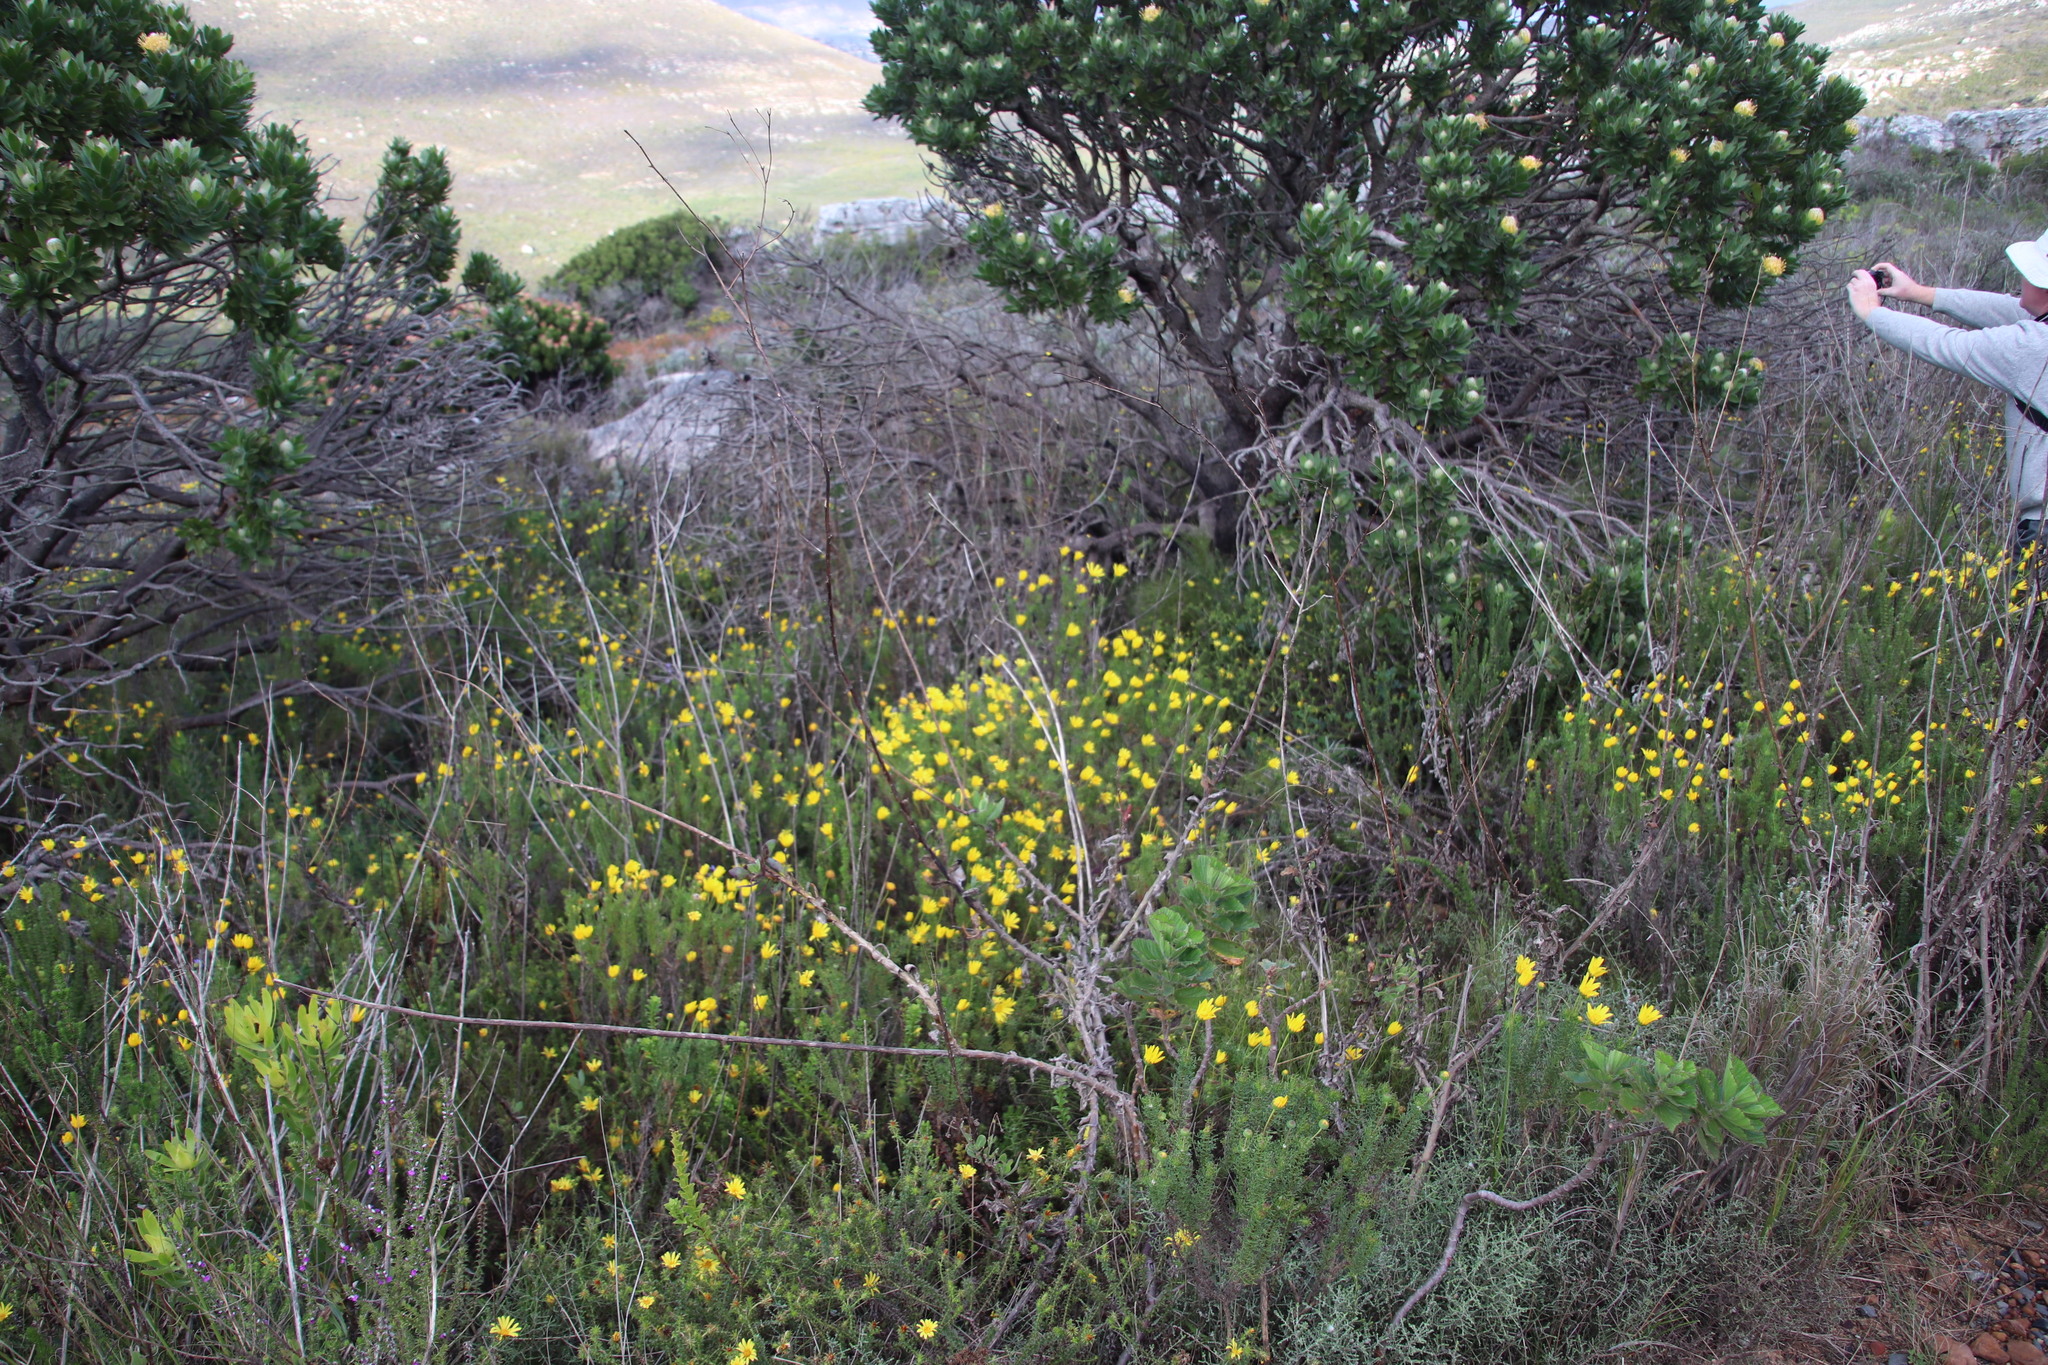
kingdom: Plantae
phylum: Tracheophyta
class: Magnoliopsida
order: Asterales
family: Asteraceae
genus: Euryops
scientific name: Euryops abrotanifolius
